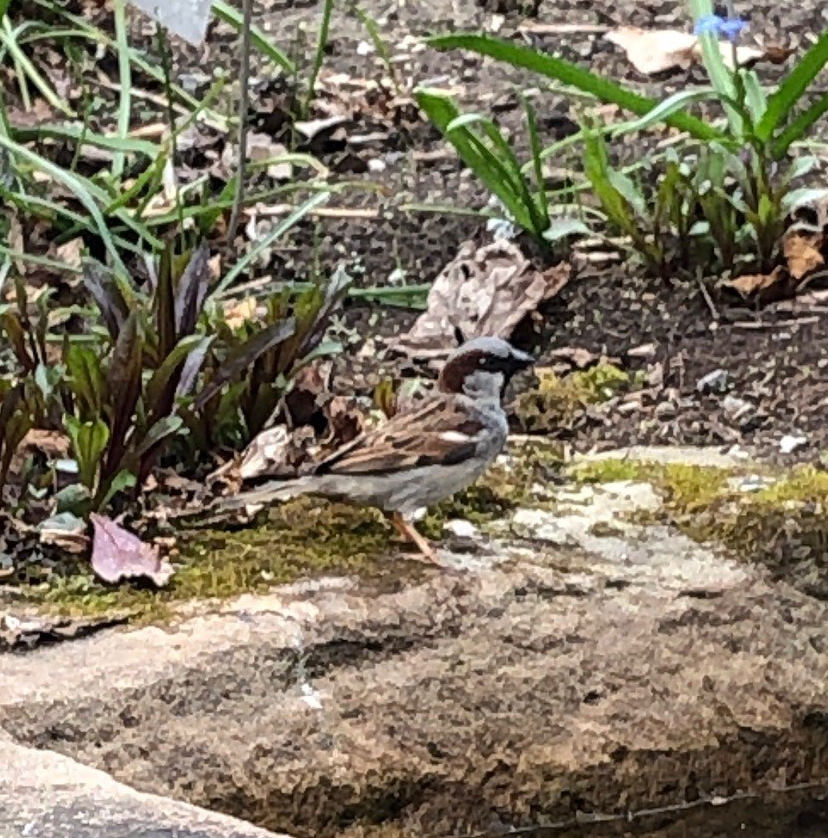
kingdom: Animalia
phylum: Chordata
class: Aves
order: Passeriformes
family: Passeridae
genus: Passer
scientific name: Passer domesticus
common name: House sparrow
